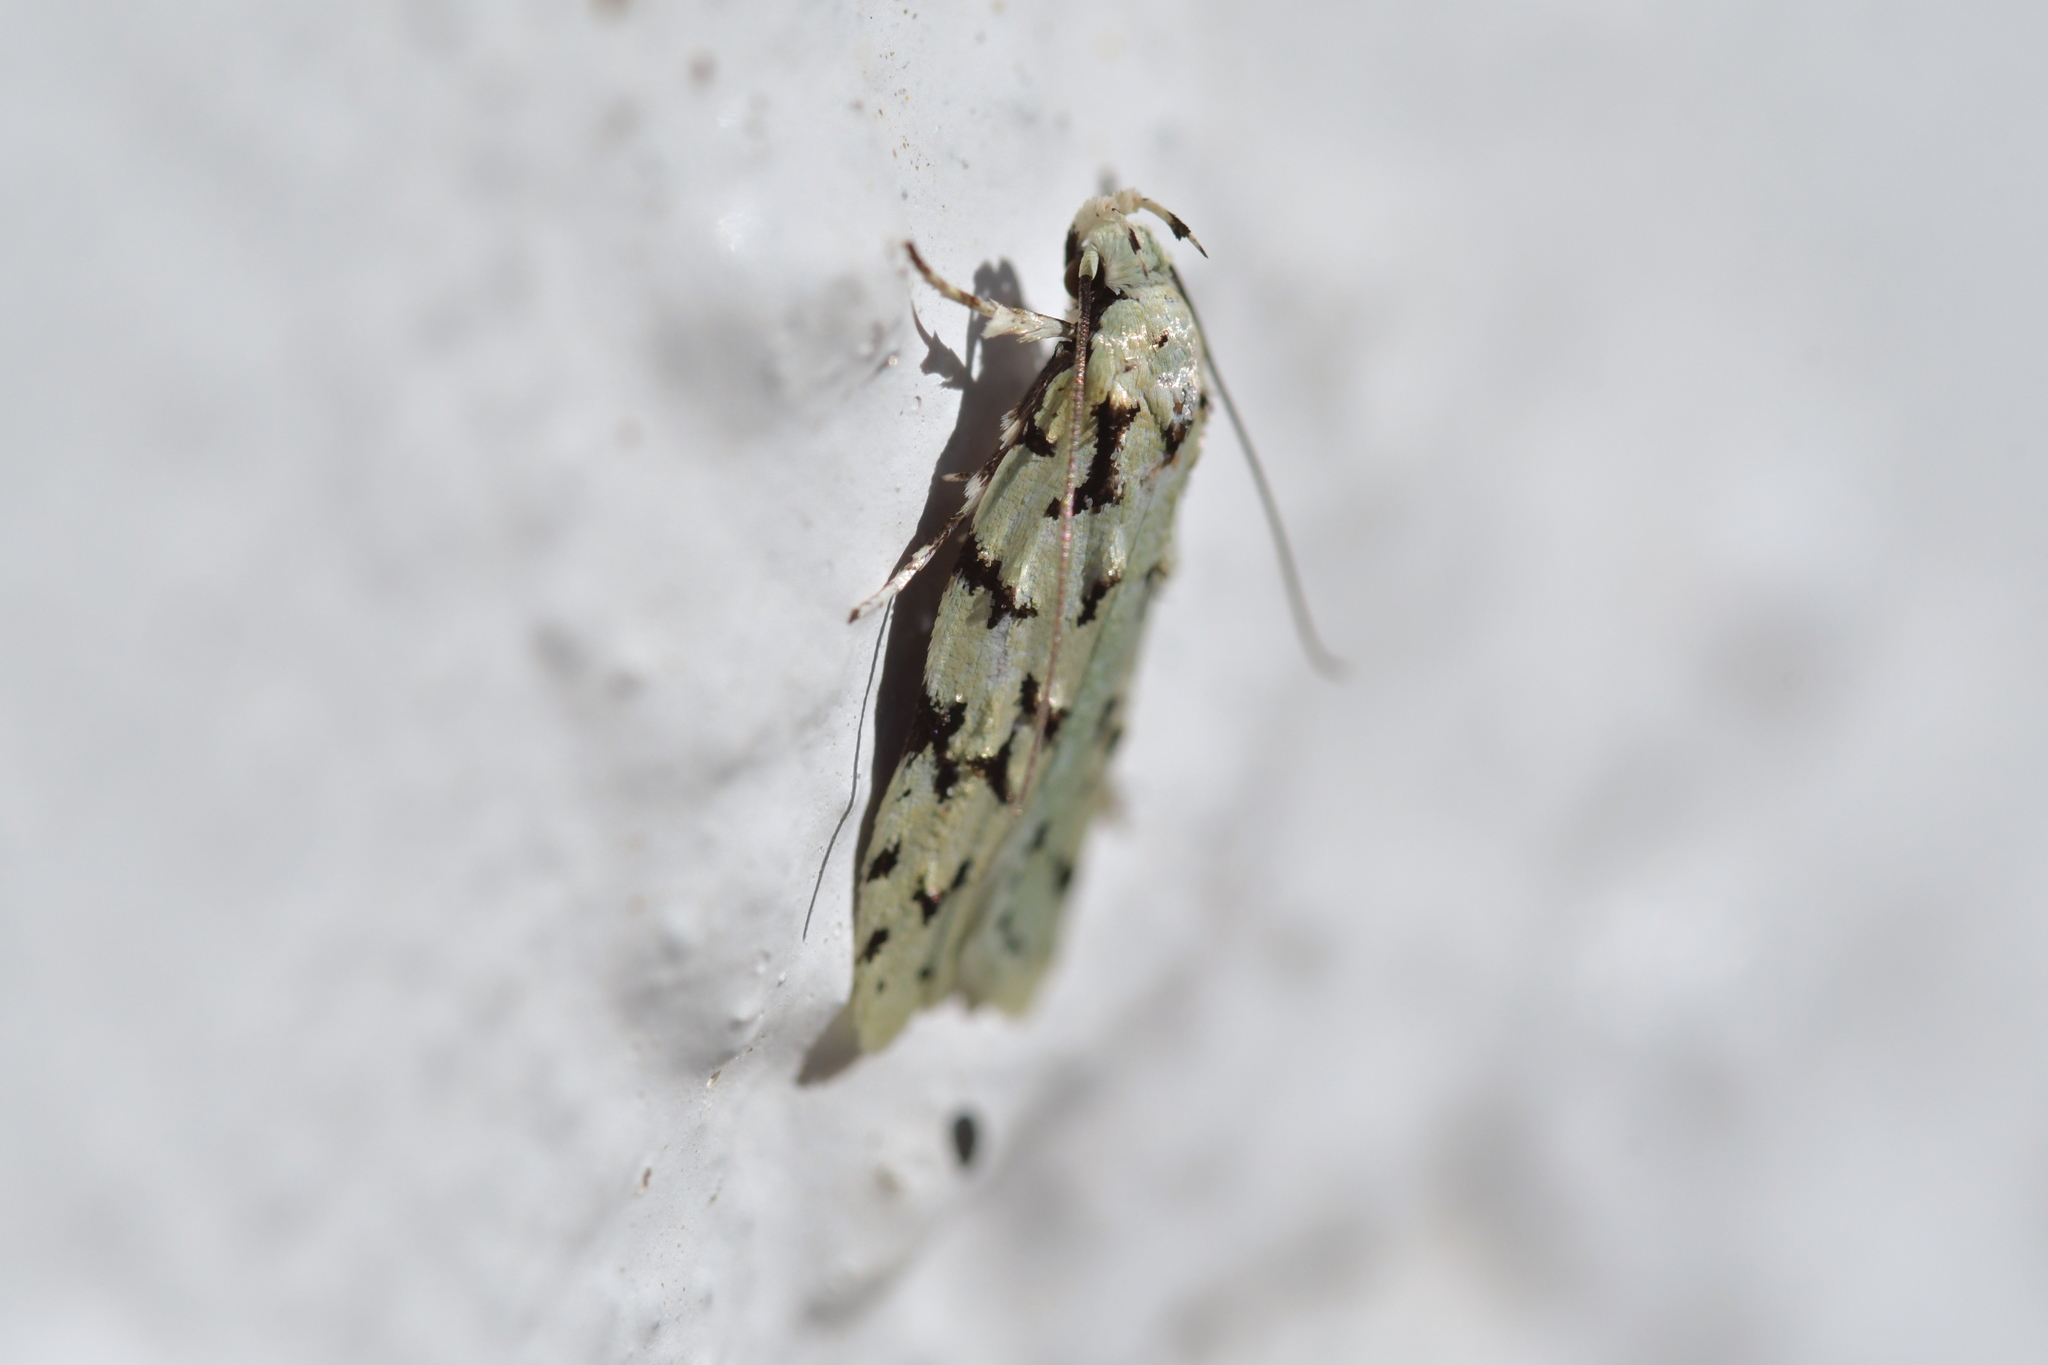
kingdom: Animalia
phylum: Arthropoda
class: Insecta
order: Lepidoptera
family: Oecophoridae
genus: Izatha
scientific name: Izatha huttoni
